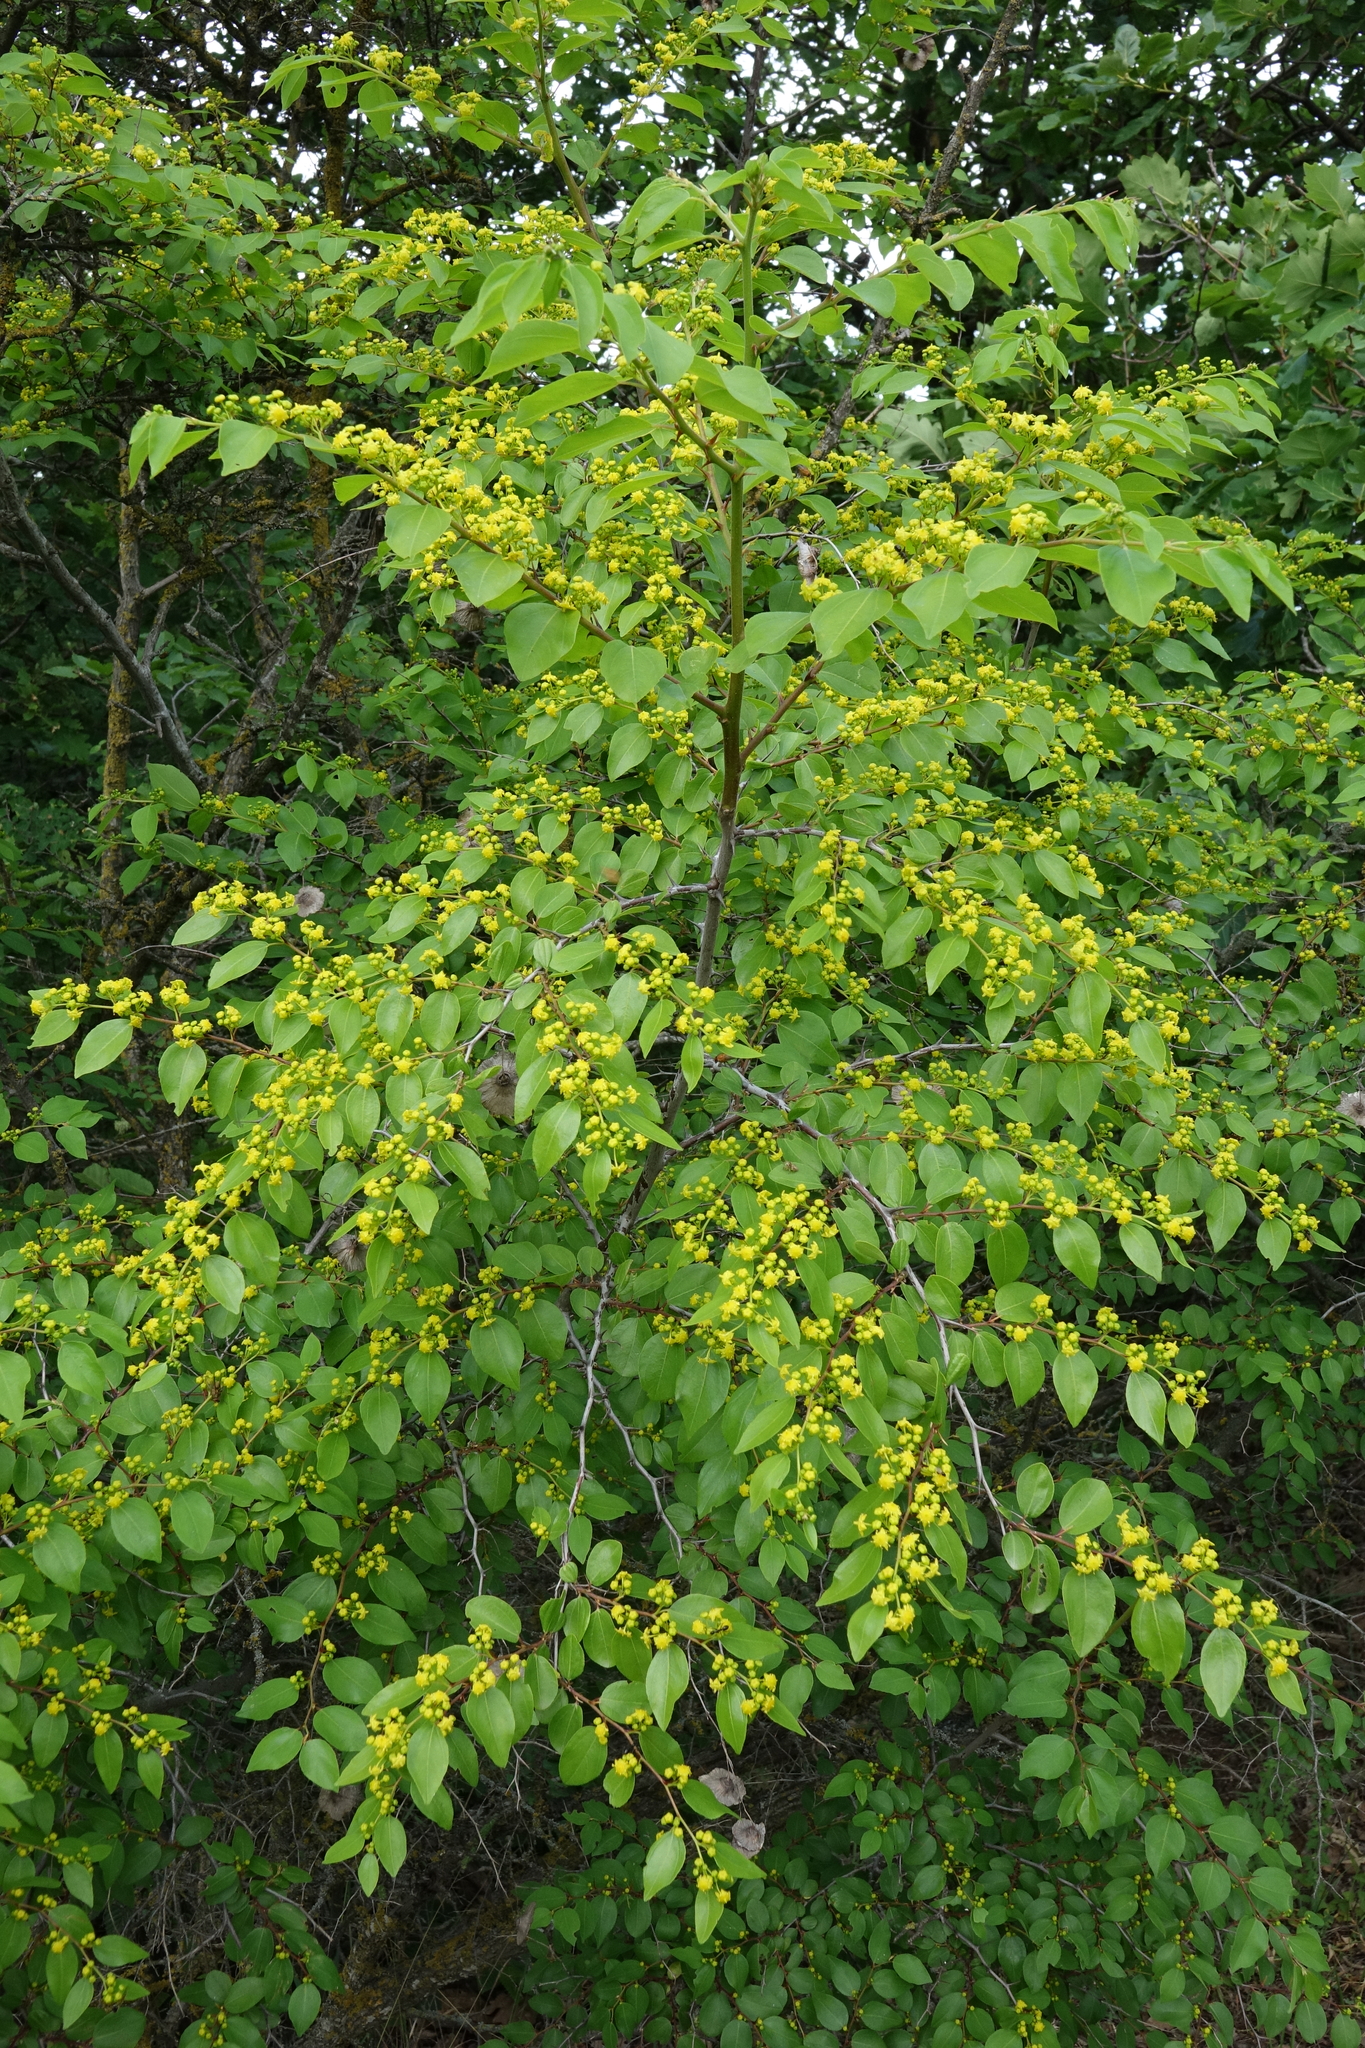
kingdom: Plantae
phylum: Tracheophyta
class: Magnoliopsida
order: Rosales
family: Rhamnaceae
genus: Paliurus
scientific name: Paliurus spina-christi
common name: Jeruselem thorn
